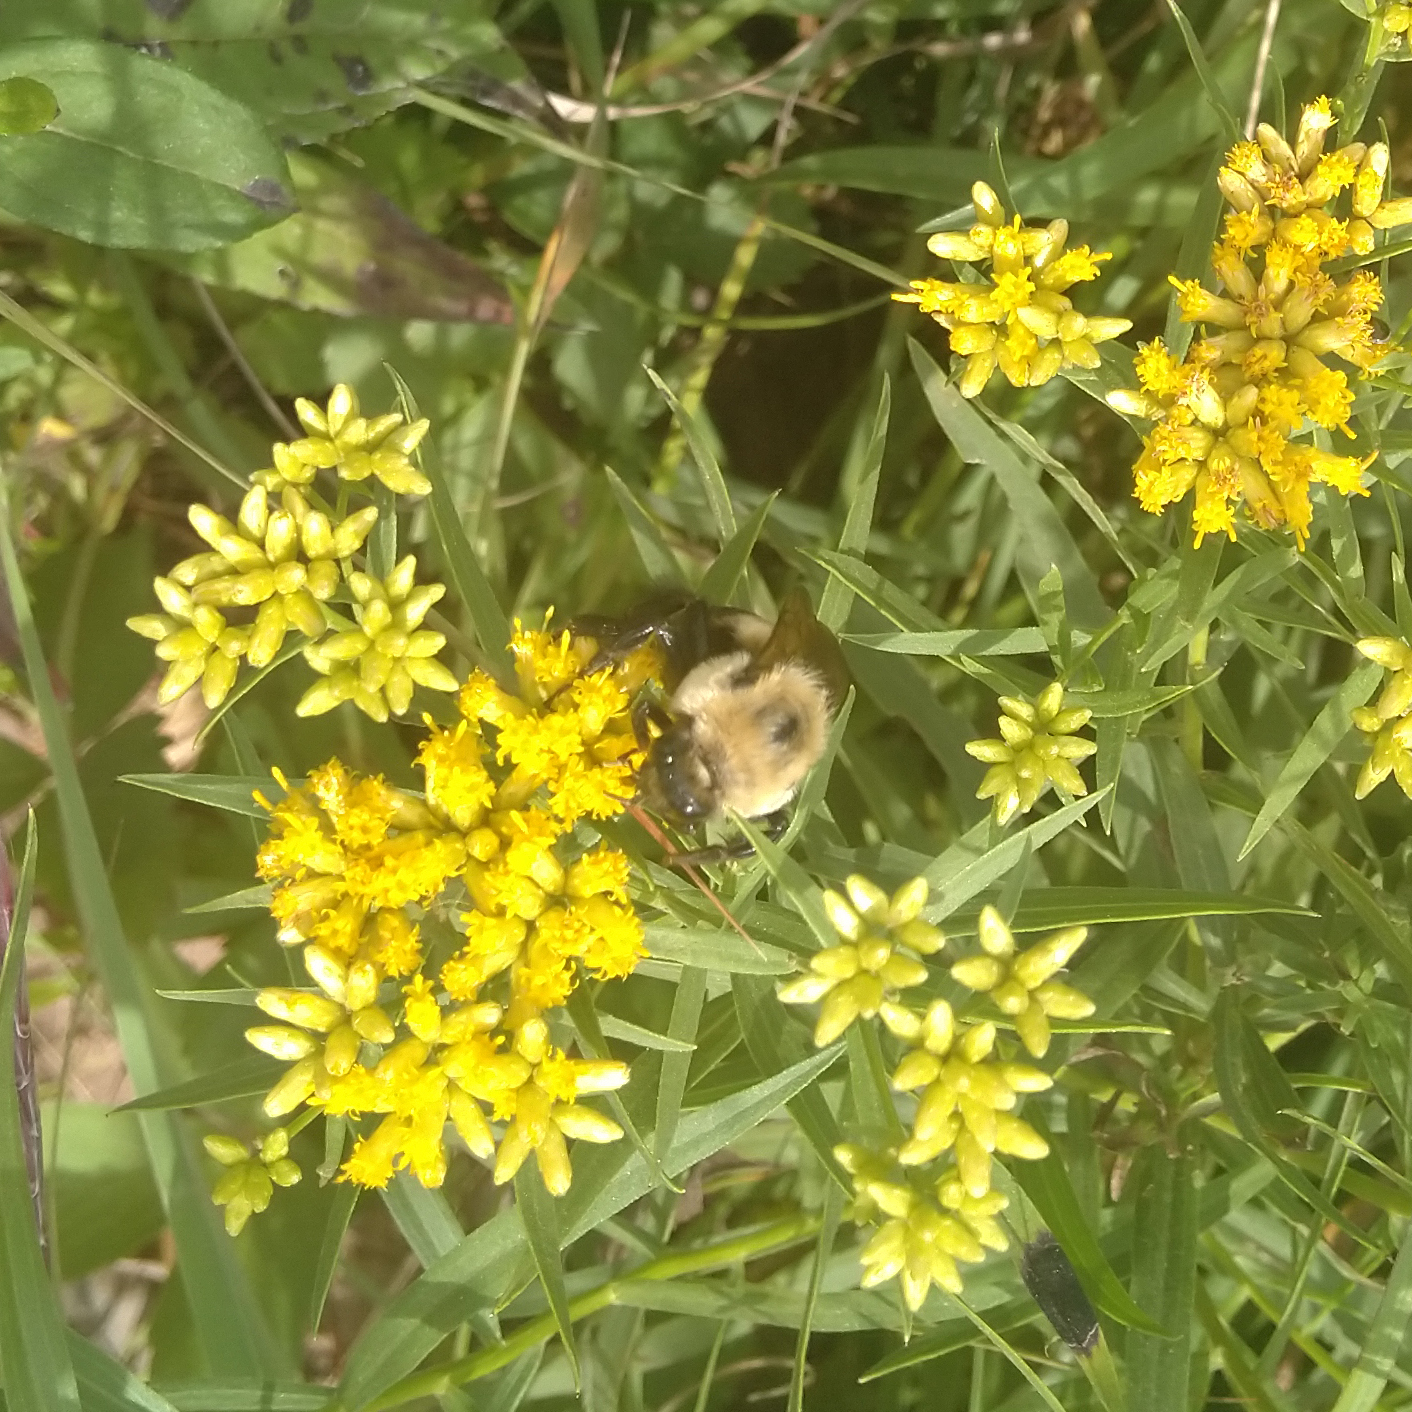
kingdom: Animalia
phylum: Arthropoda
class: Insecta
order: Hymenoptera
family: Apidae
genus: Bombus
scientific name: Bombus griseocollis
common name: Brown-belted bumble bee
